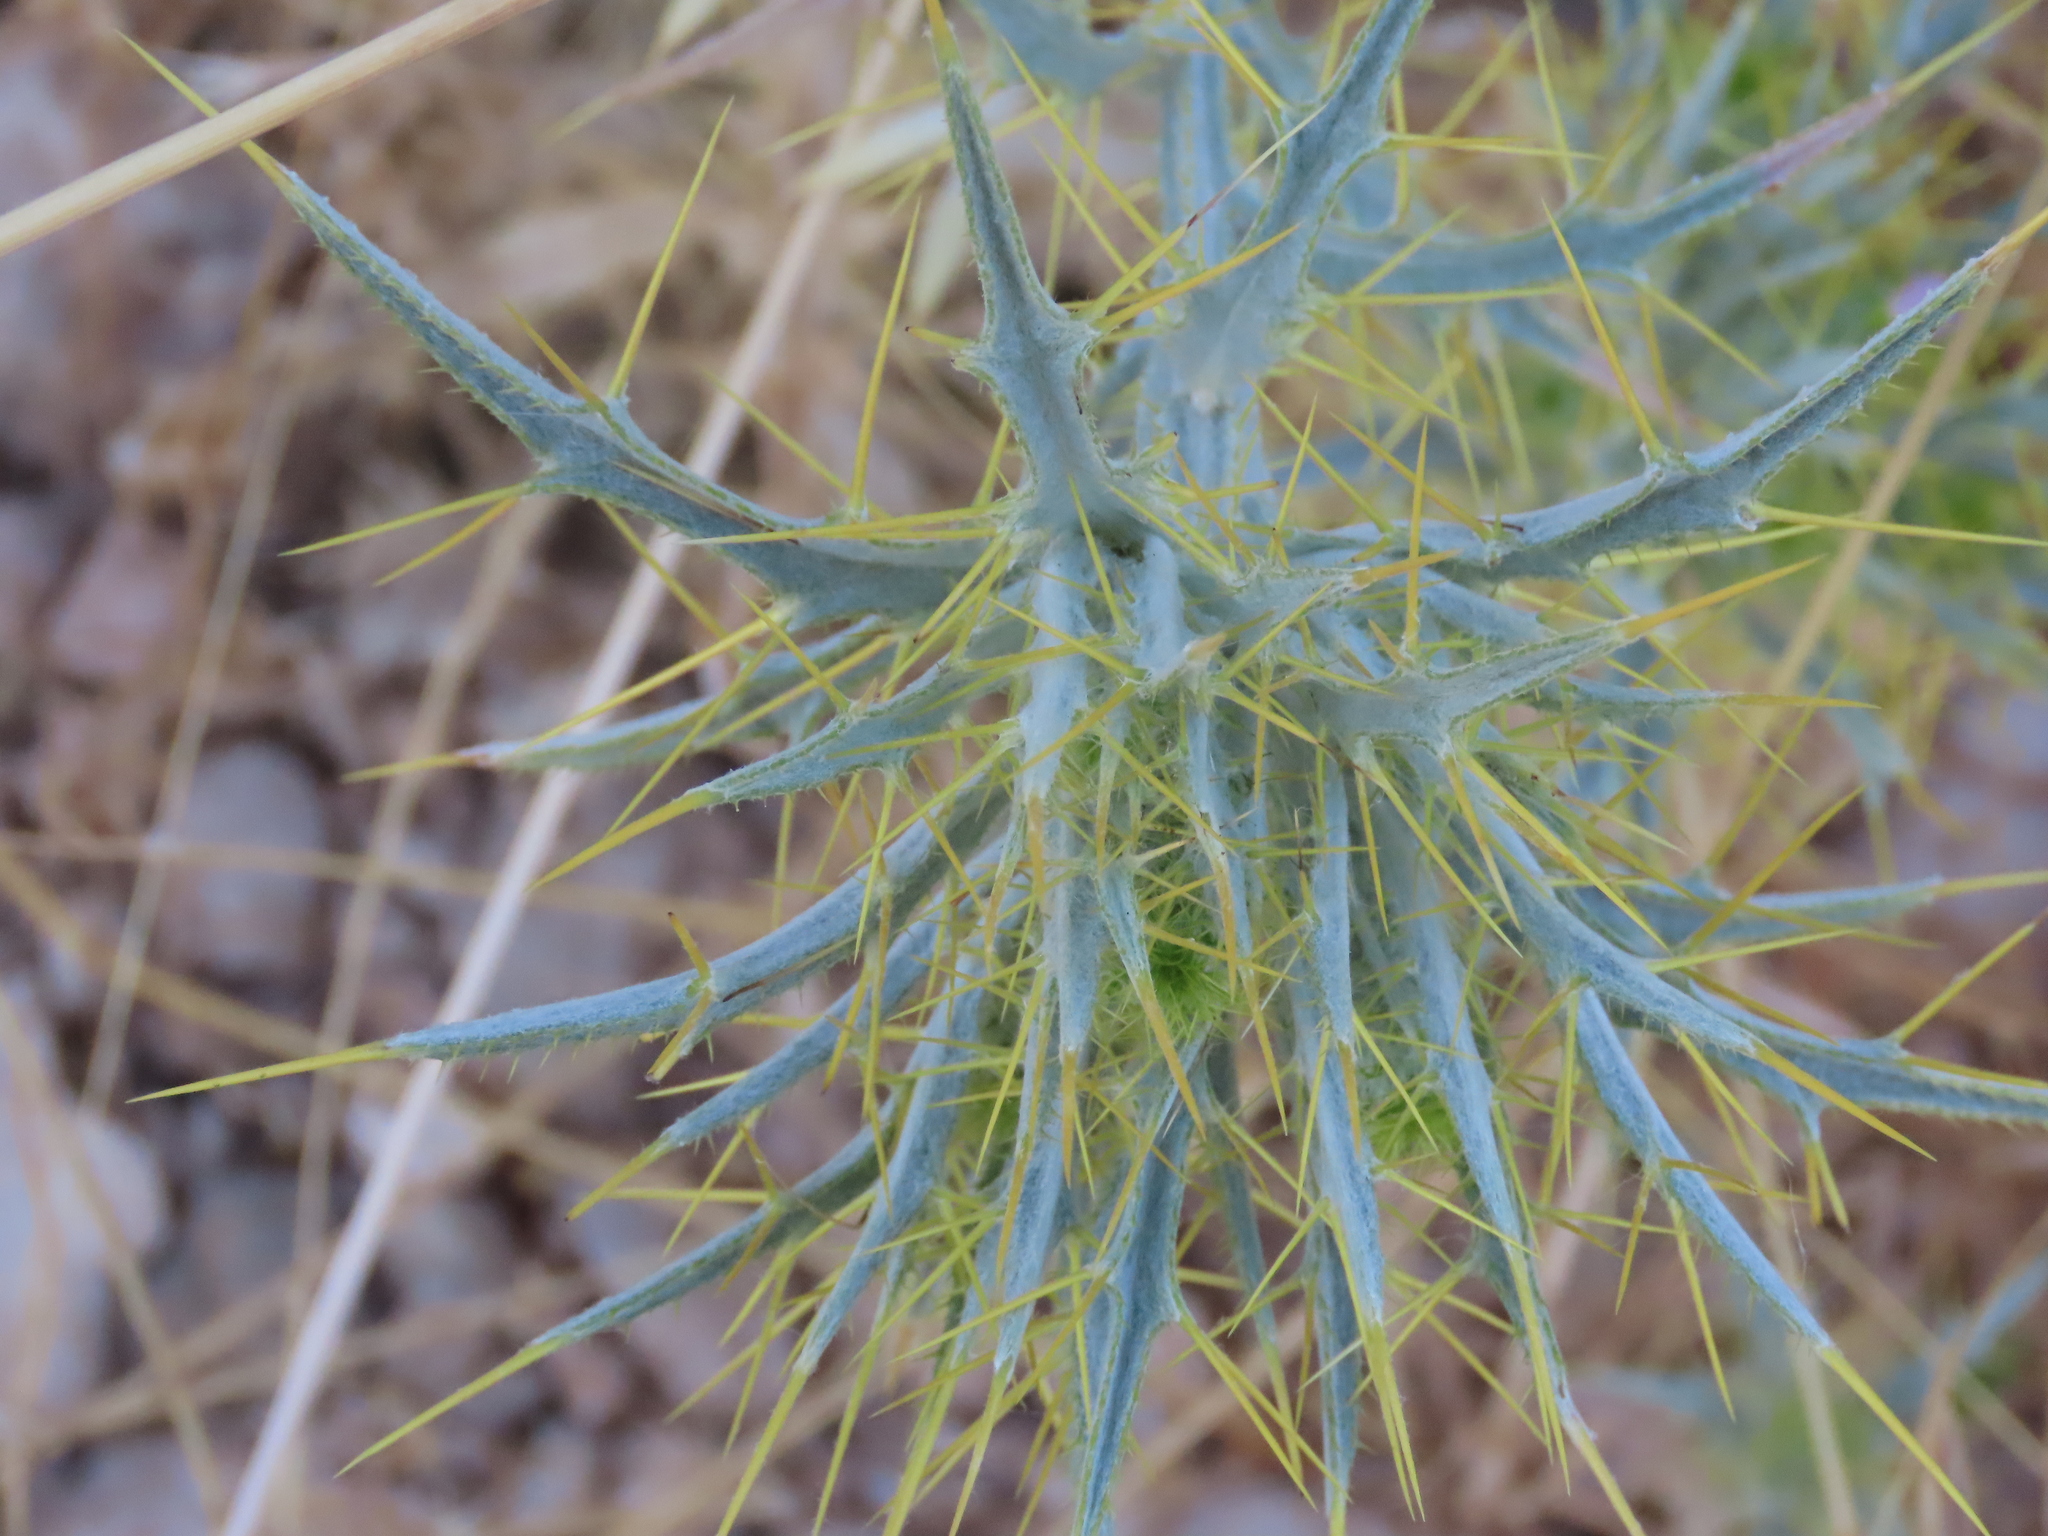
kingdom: Plantae
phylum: Tracheophyta
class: Magnoliopsida
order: Asterales
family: Asteraceae
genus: Picnomon
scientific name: Picnomon acarna
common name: Soldier thistle
